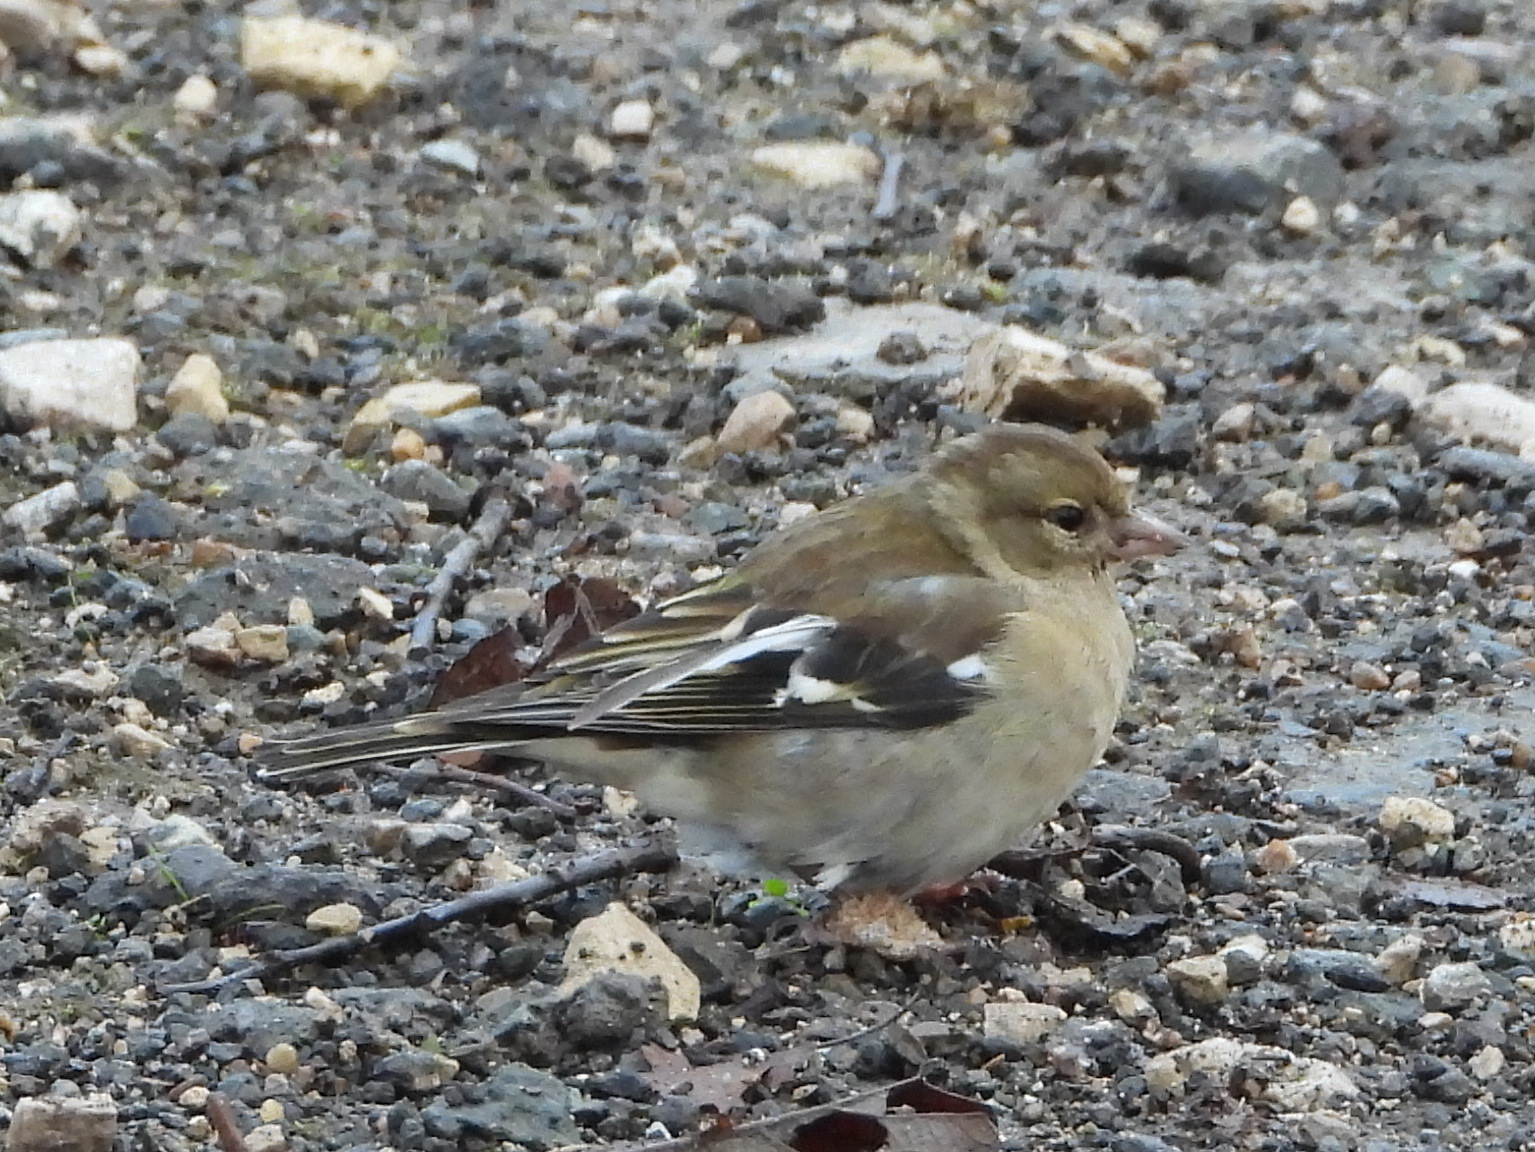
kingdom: Animalia
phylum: Chordata
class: Aves
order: Passeriformes
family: Fringillidae
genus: Fringilla
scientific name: Fringilla coelebs
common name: Common chaffinch
